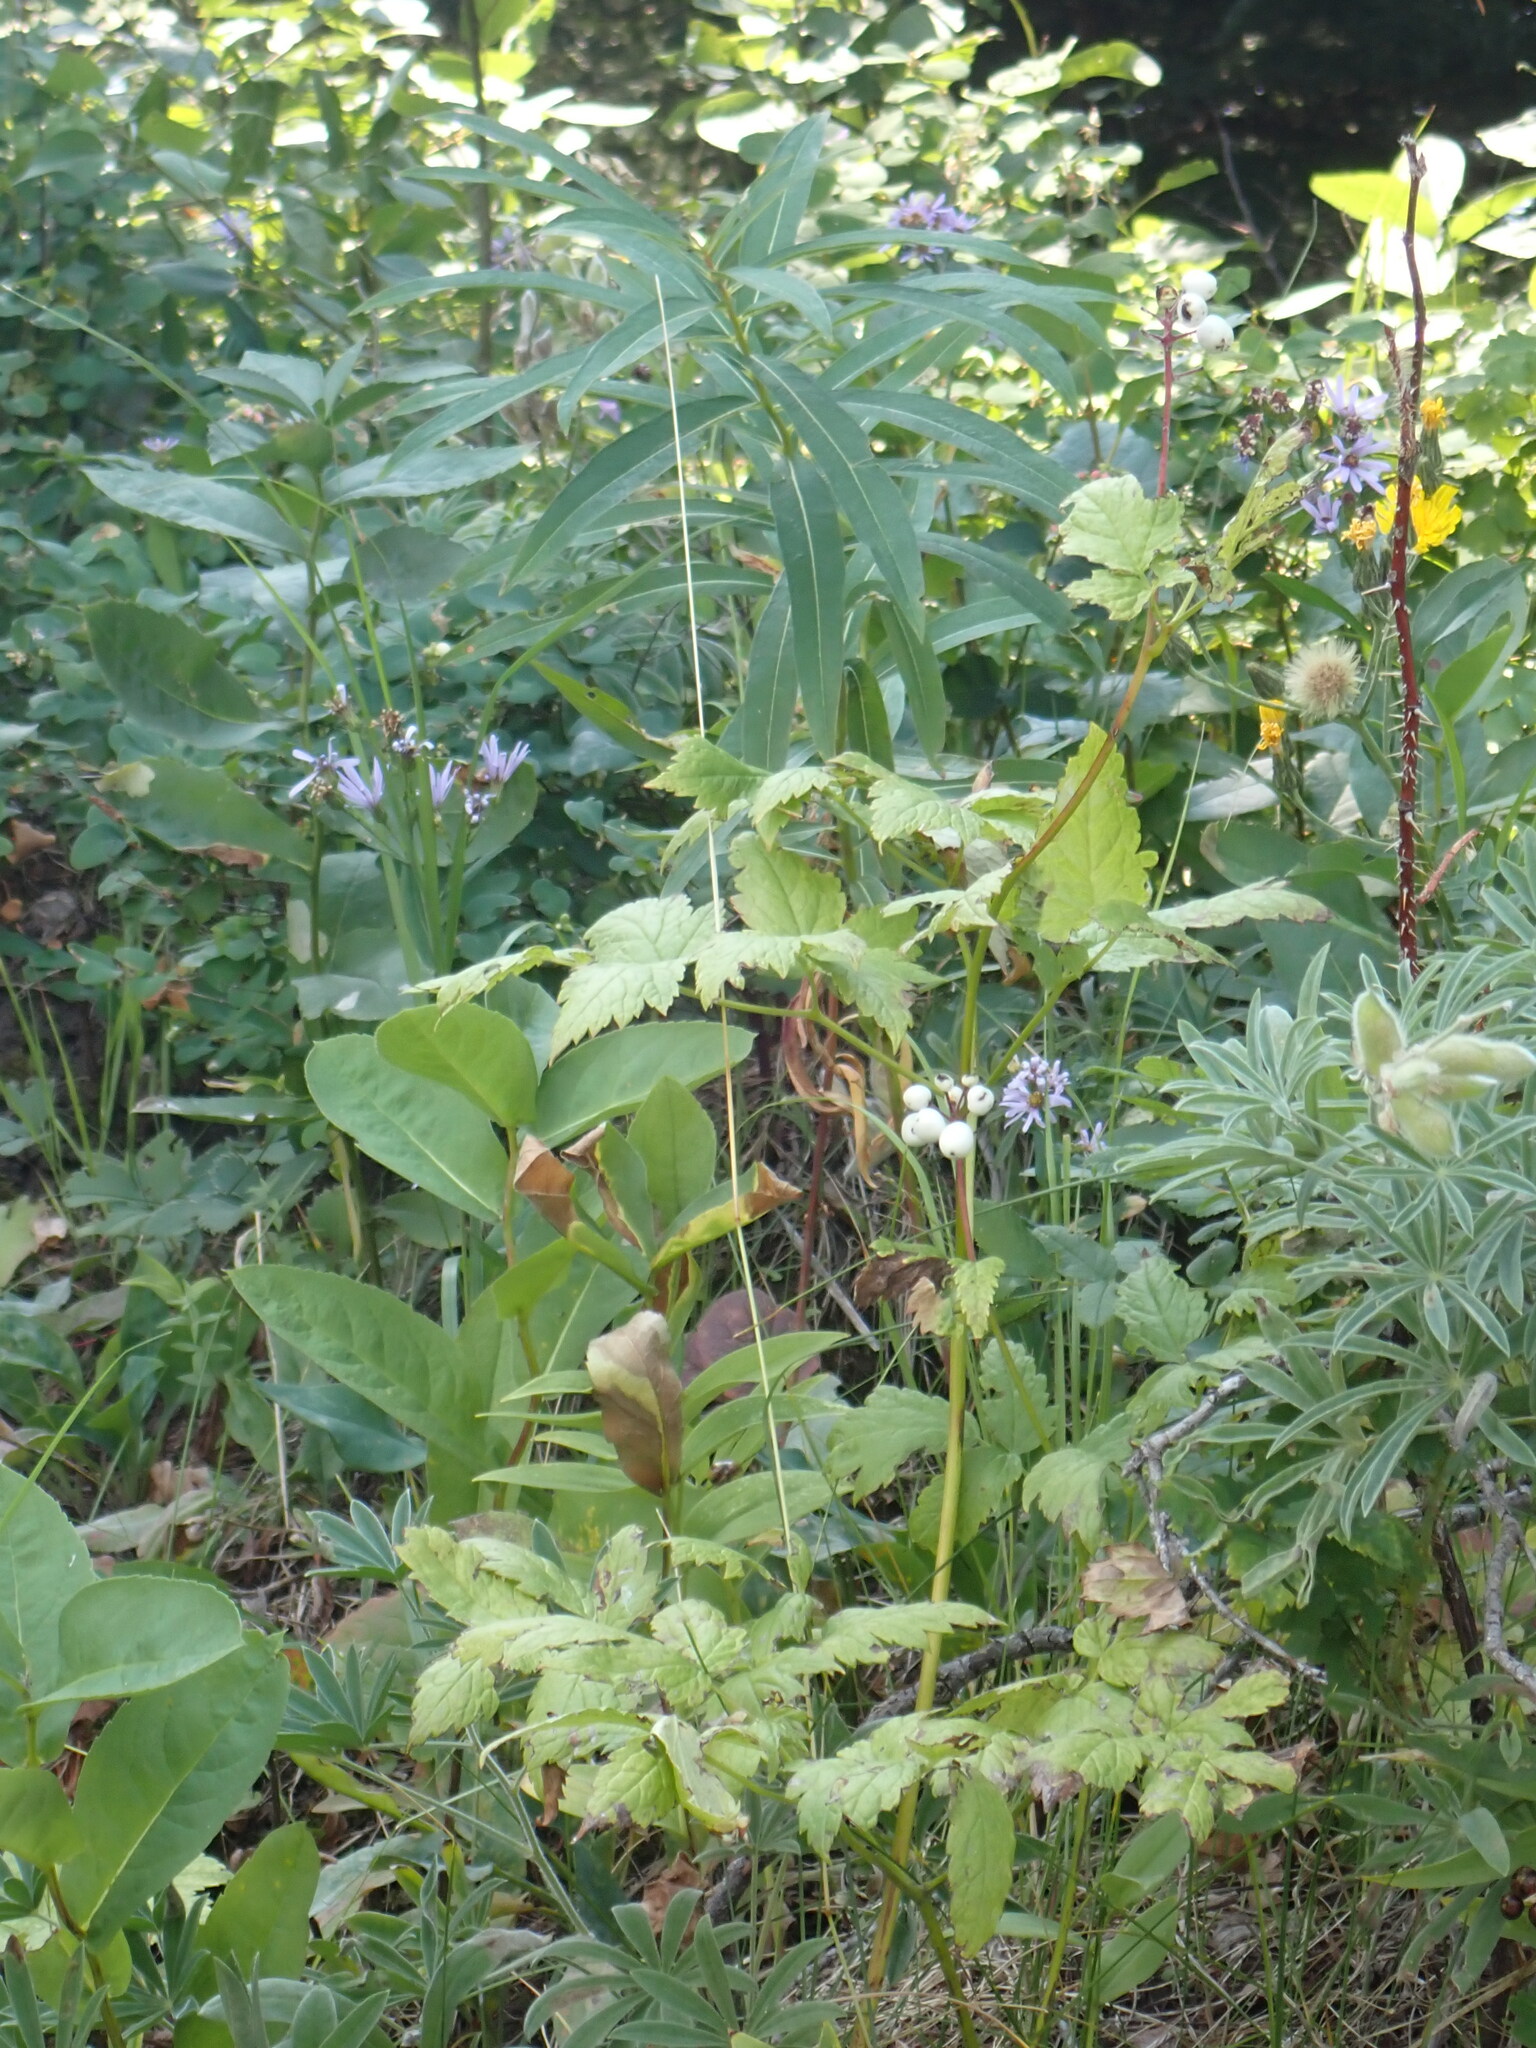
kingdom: Plantae
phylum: Tracheophyta
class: Magnoliopsida
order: Ranunculales
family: Ranunculaceae
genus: Actaea
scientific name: Actaea rubra
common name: Red baneberry
